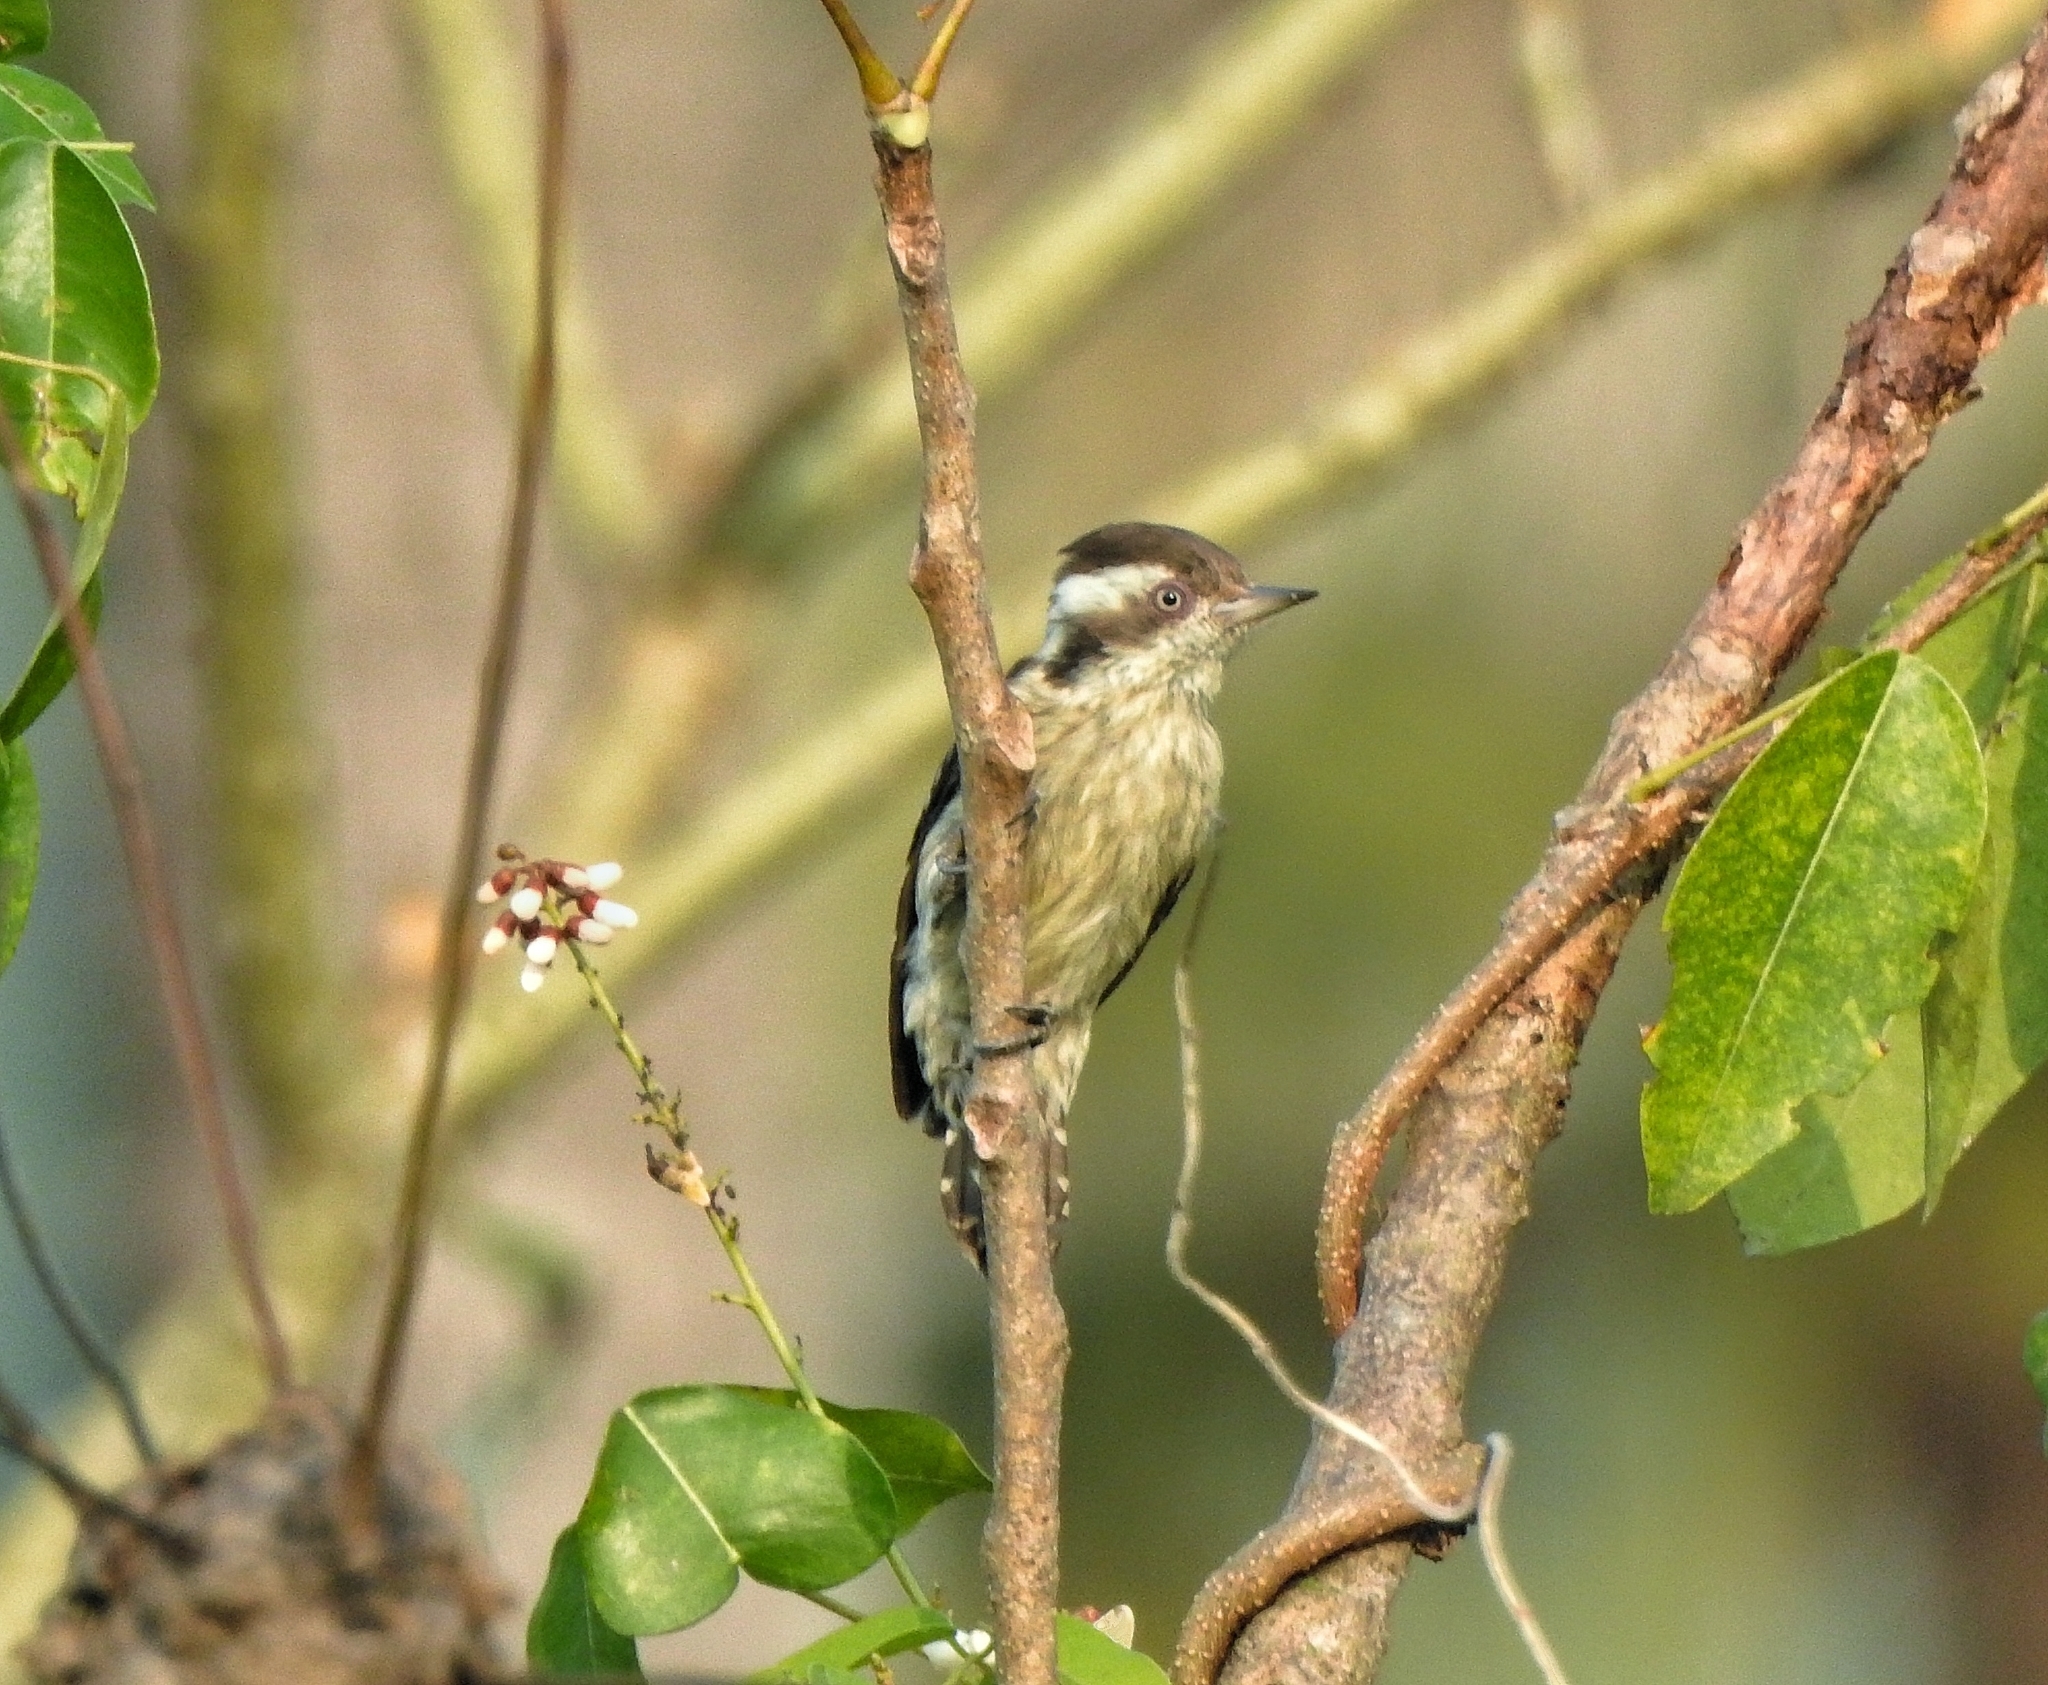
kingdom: Animalia
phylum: Chordata
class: Aves
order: Piciformes
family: Picidae
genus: Yungipicus
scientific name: Yungipicus nanus
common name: Brown-capped pygmy woodpecker
